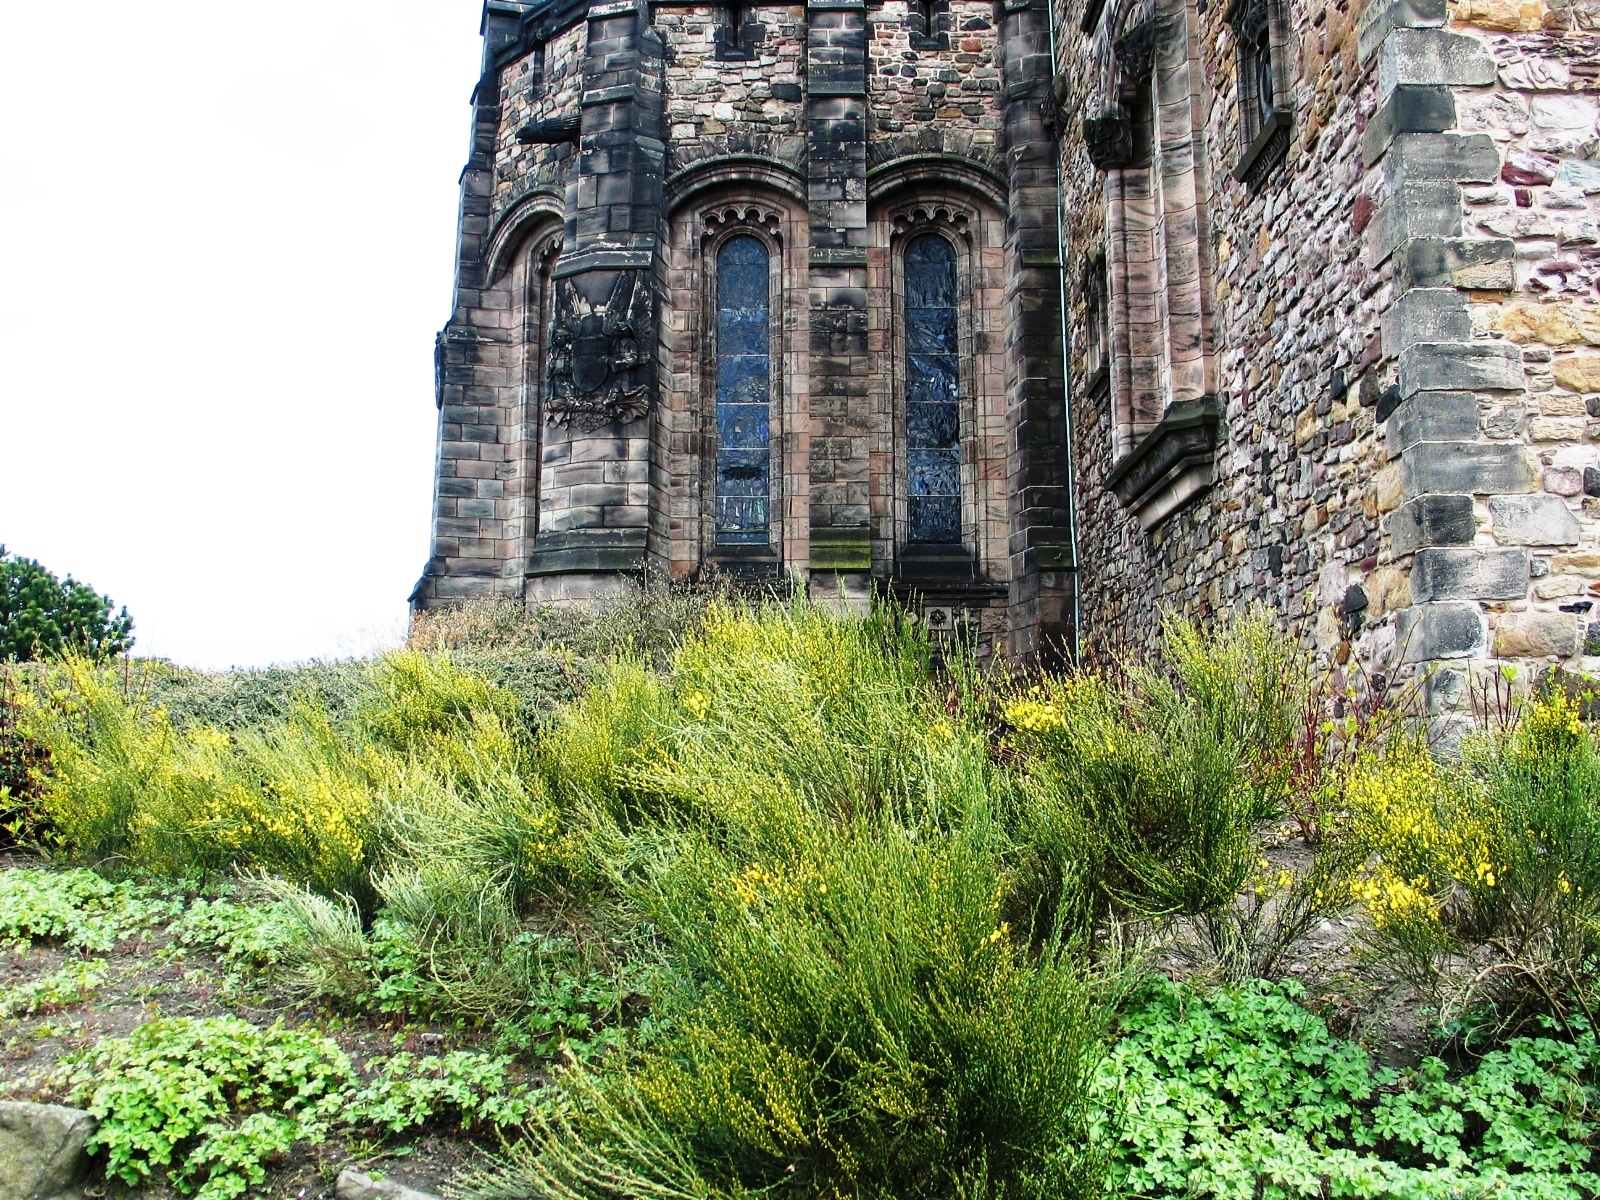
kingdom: Plantae
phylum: Tracheophyta
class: Magnoliopsida
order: Fabales
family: Fabaceae
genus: Cytisus
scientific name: Cytisus scoparius
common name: Scotch broom
